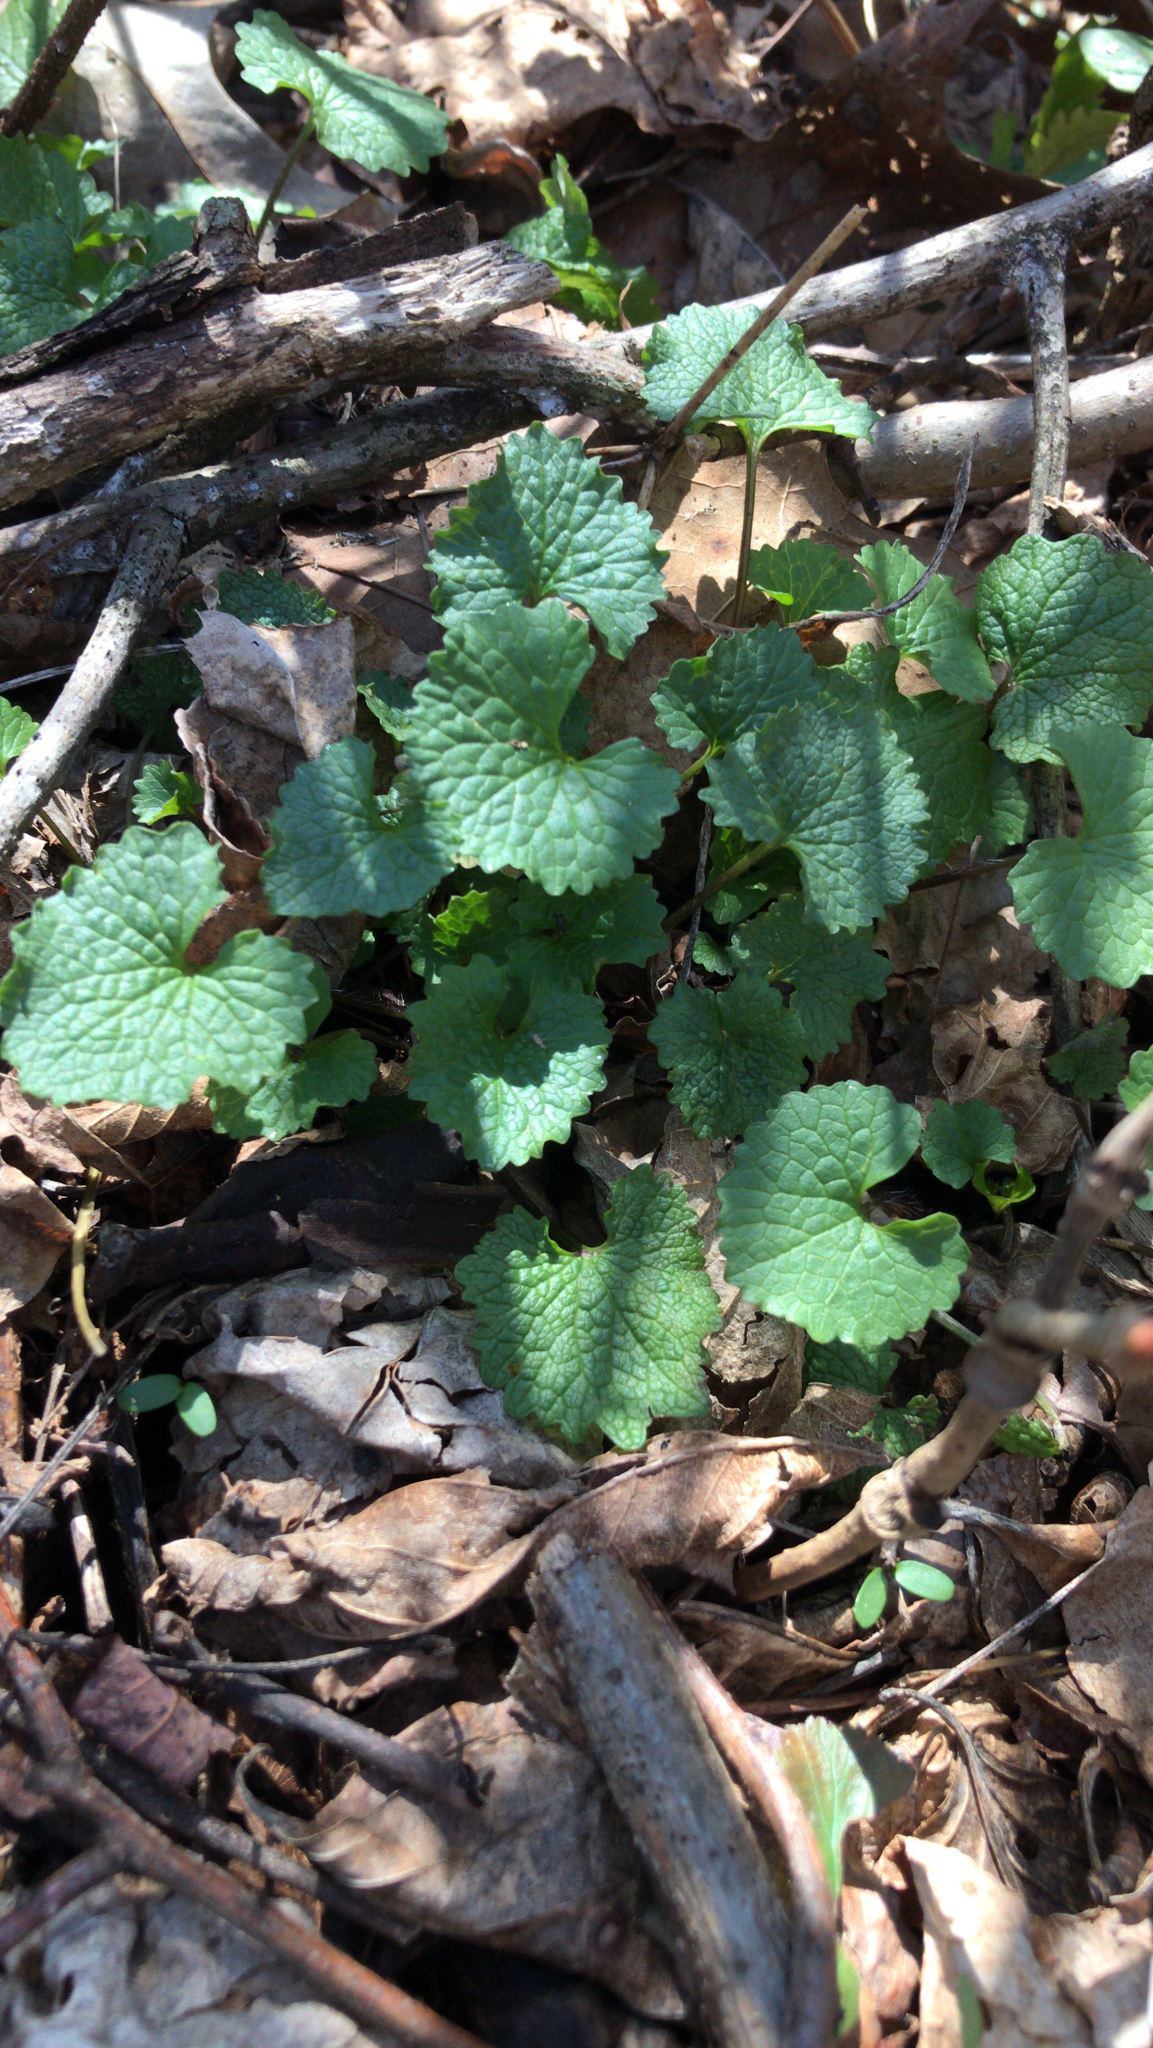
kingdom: Plantae
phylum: Tracheophyta
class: Magnoliopsida
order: Brassicales
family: Brassicaceae
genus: Alliaria
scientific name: Alliaria petiolata
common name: Garlic mustard
